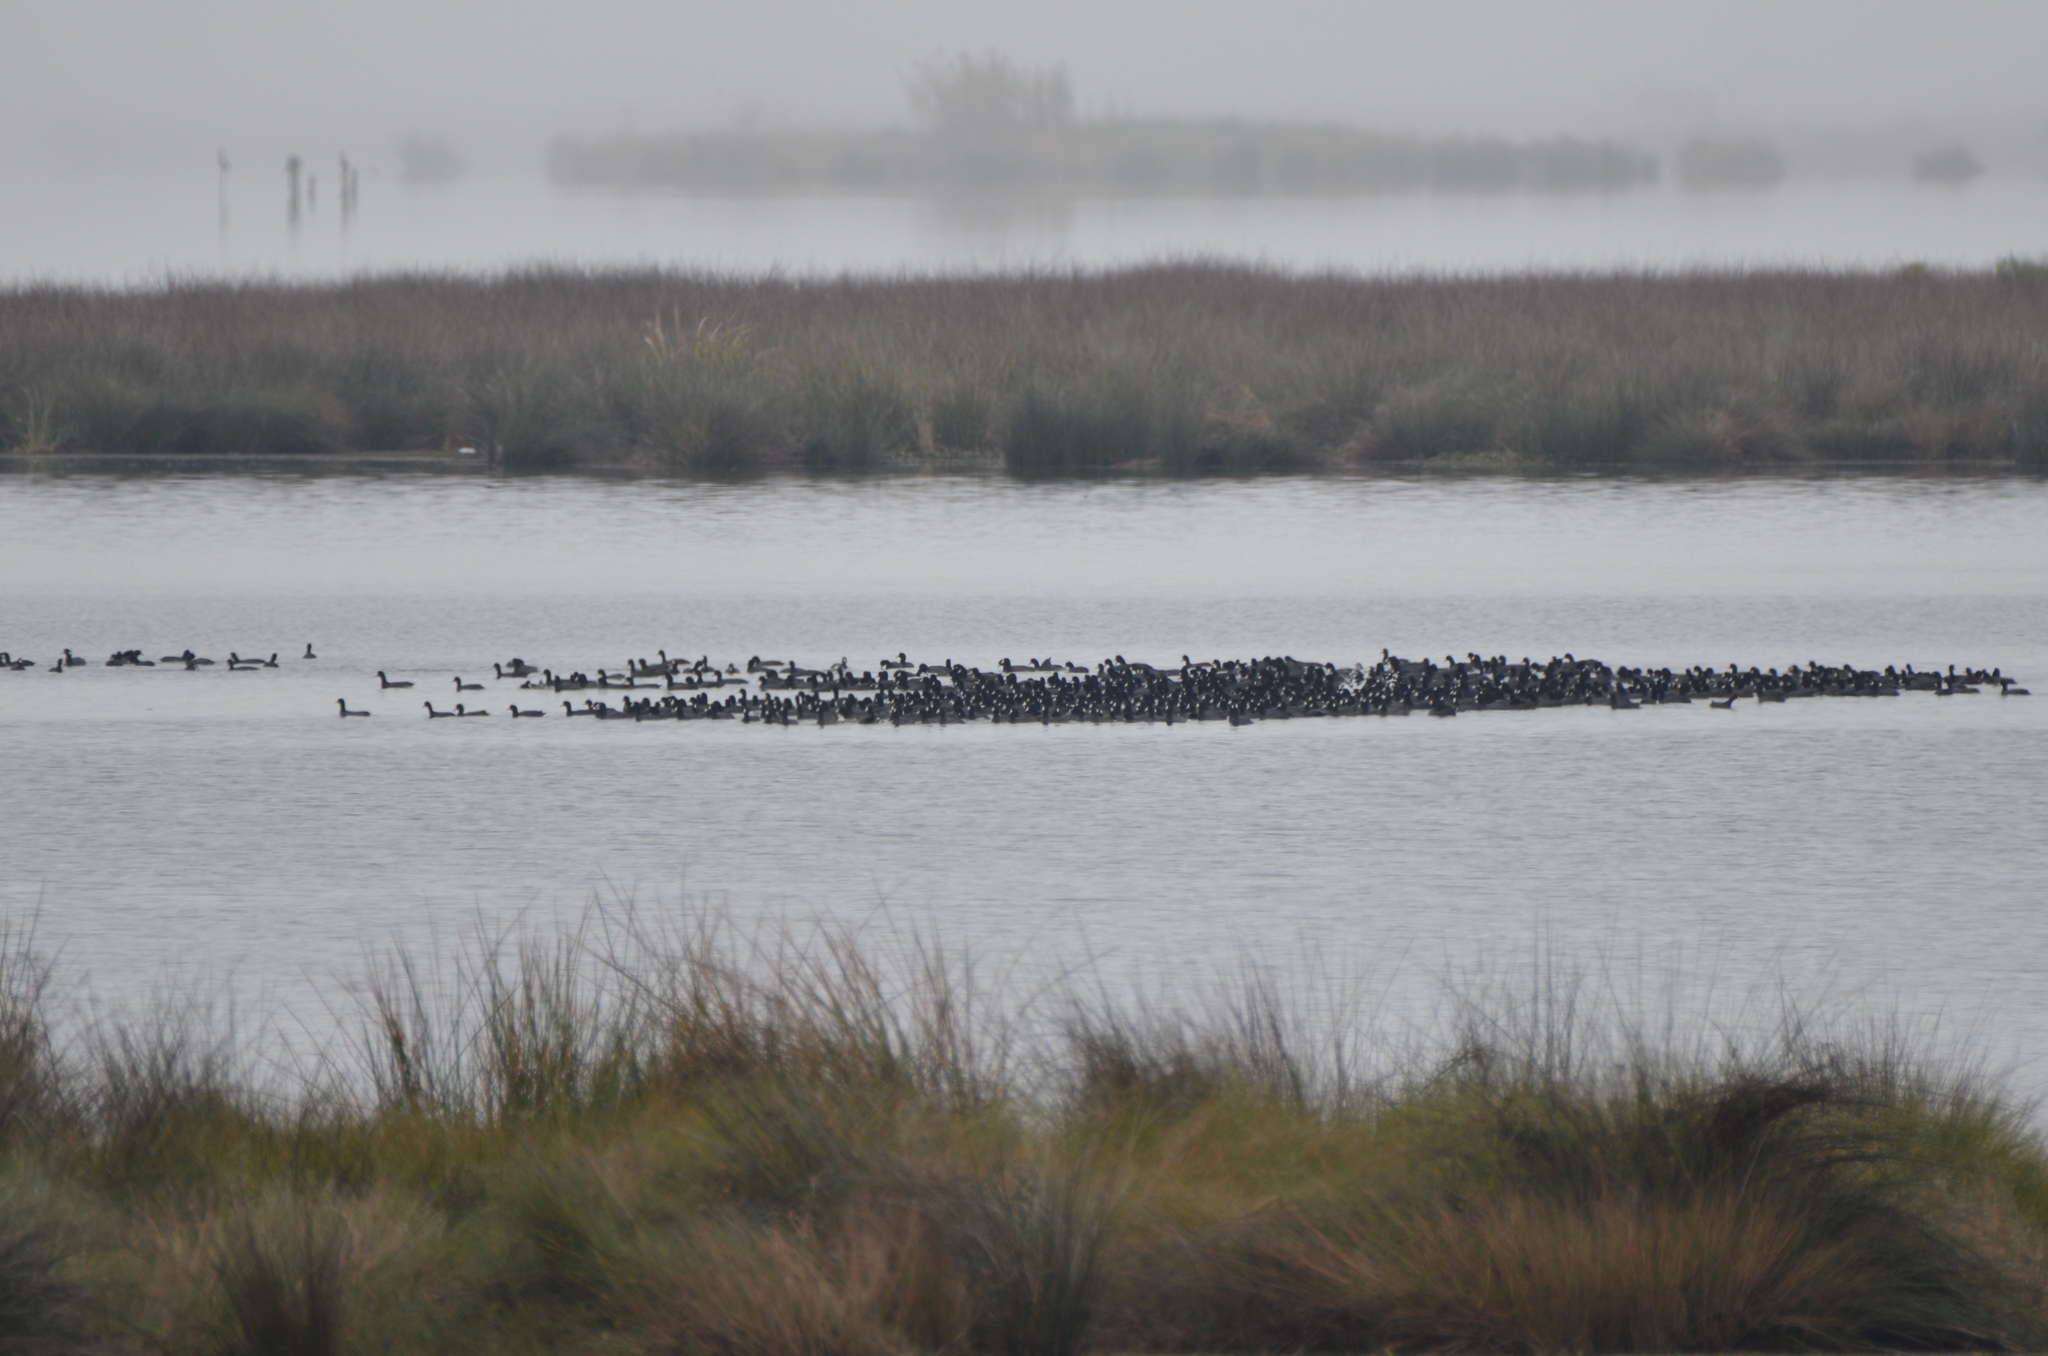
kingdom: Animalia
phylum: Chordata
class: Aves
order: Gruiformes
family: Rallidae
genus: Fulica
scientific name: Fulica americana
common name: American coot
